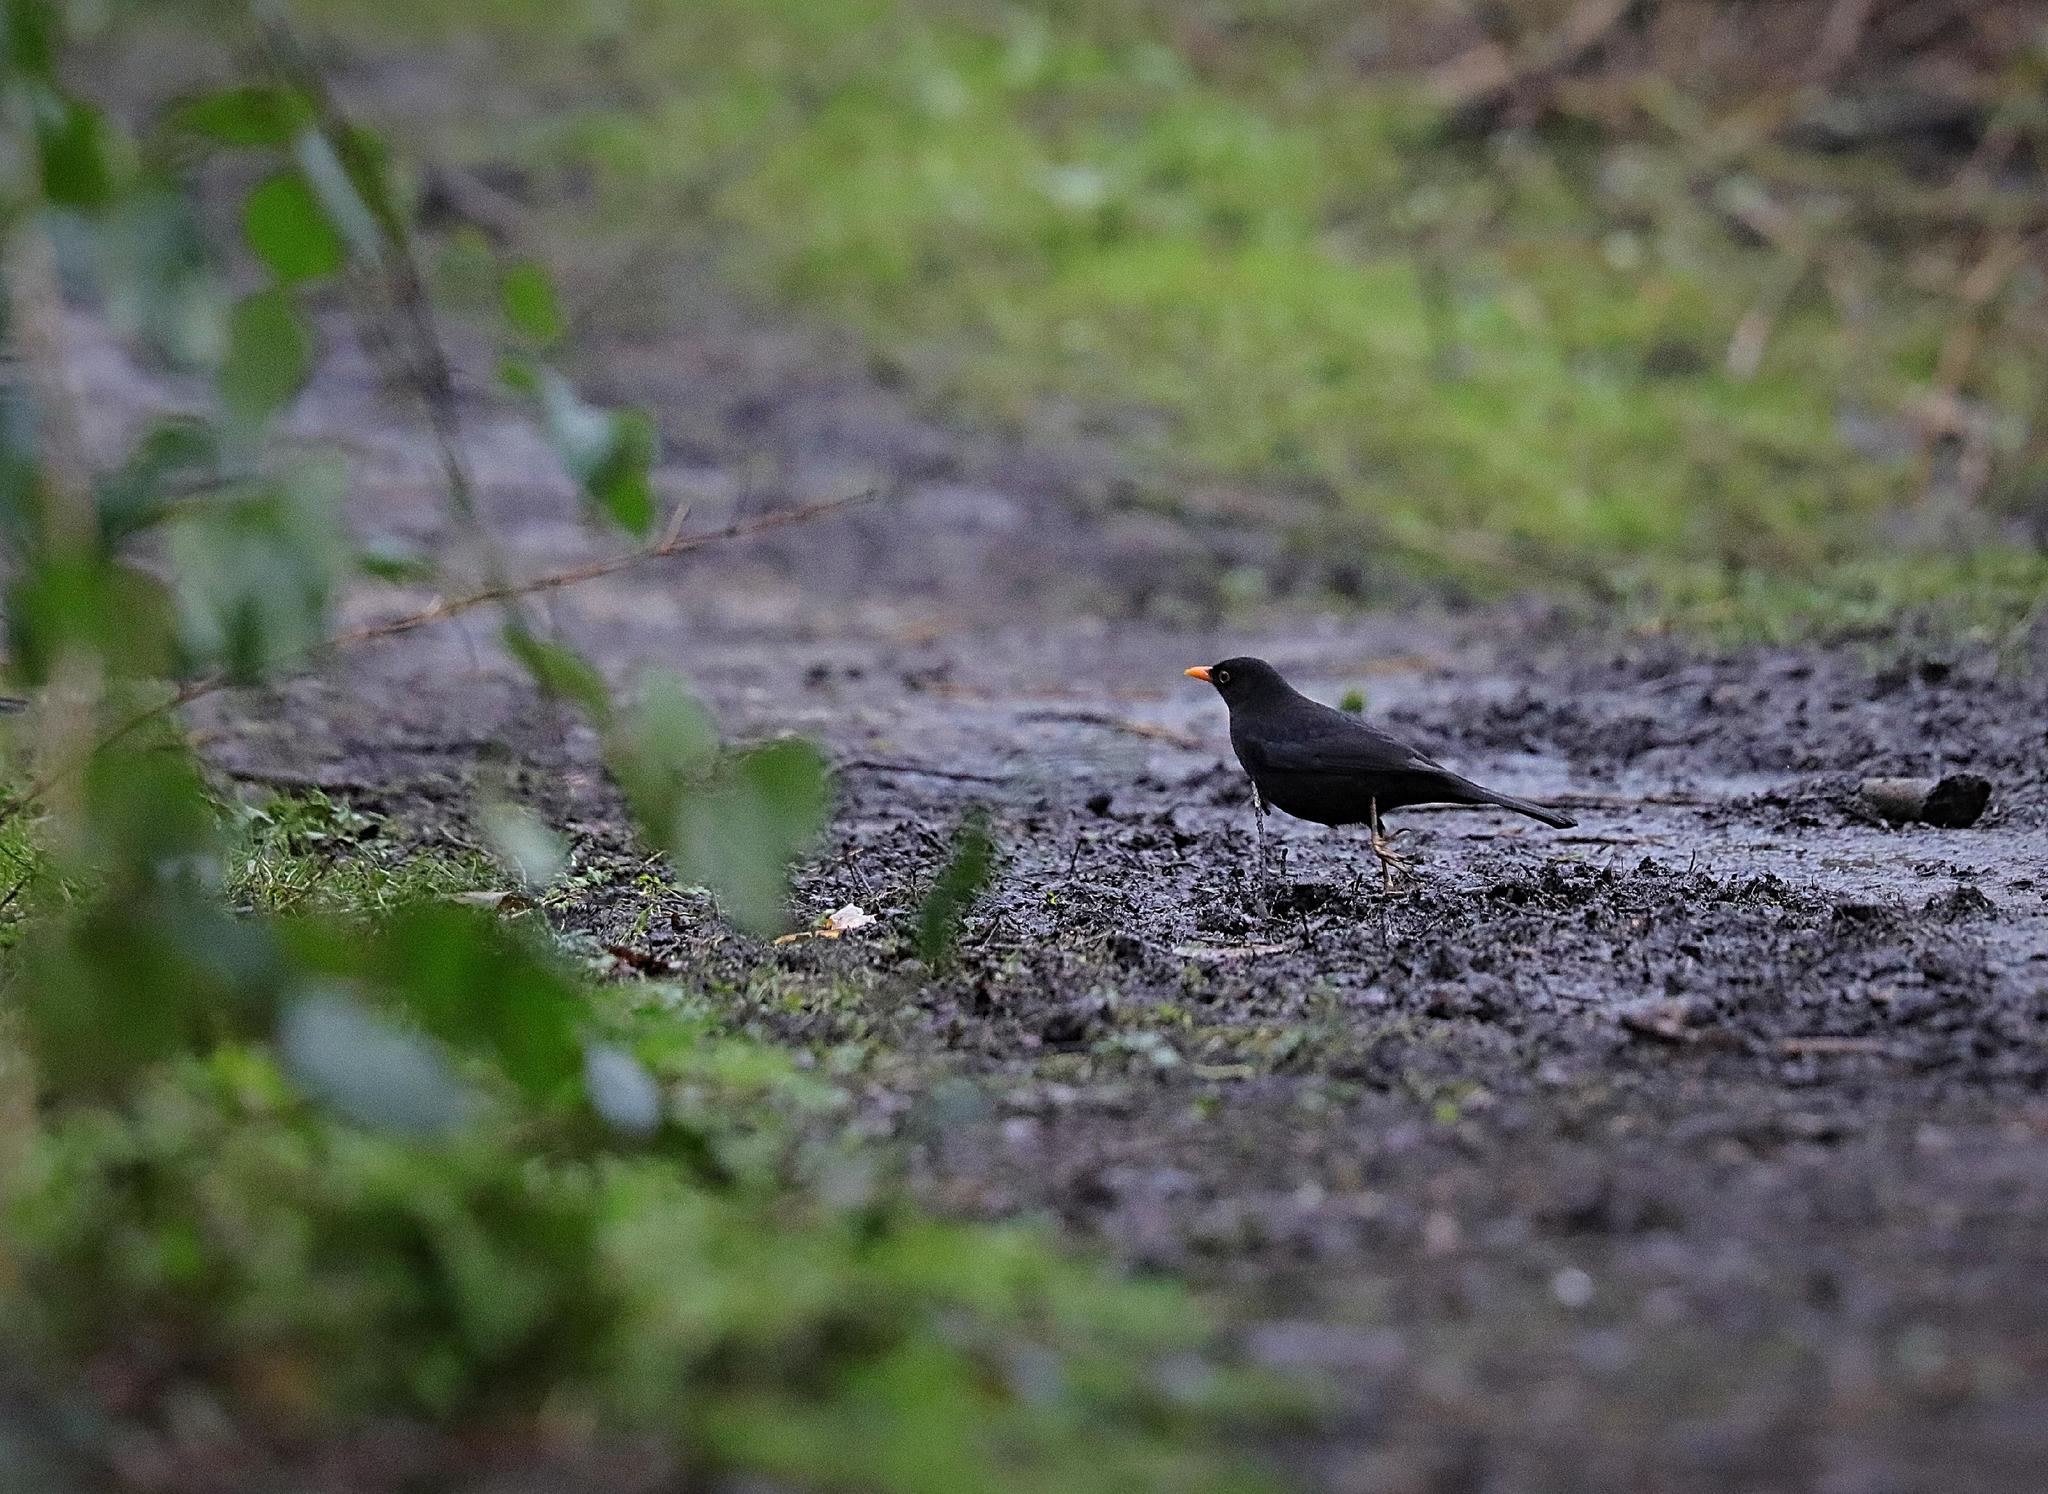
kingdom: Animalia
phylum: Chordata
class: Aves
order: Passeriformes
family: Turdidae
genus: Turdus
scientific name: Turdus merula
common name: Common blackbird
